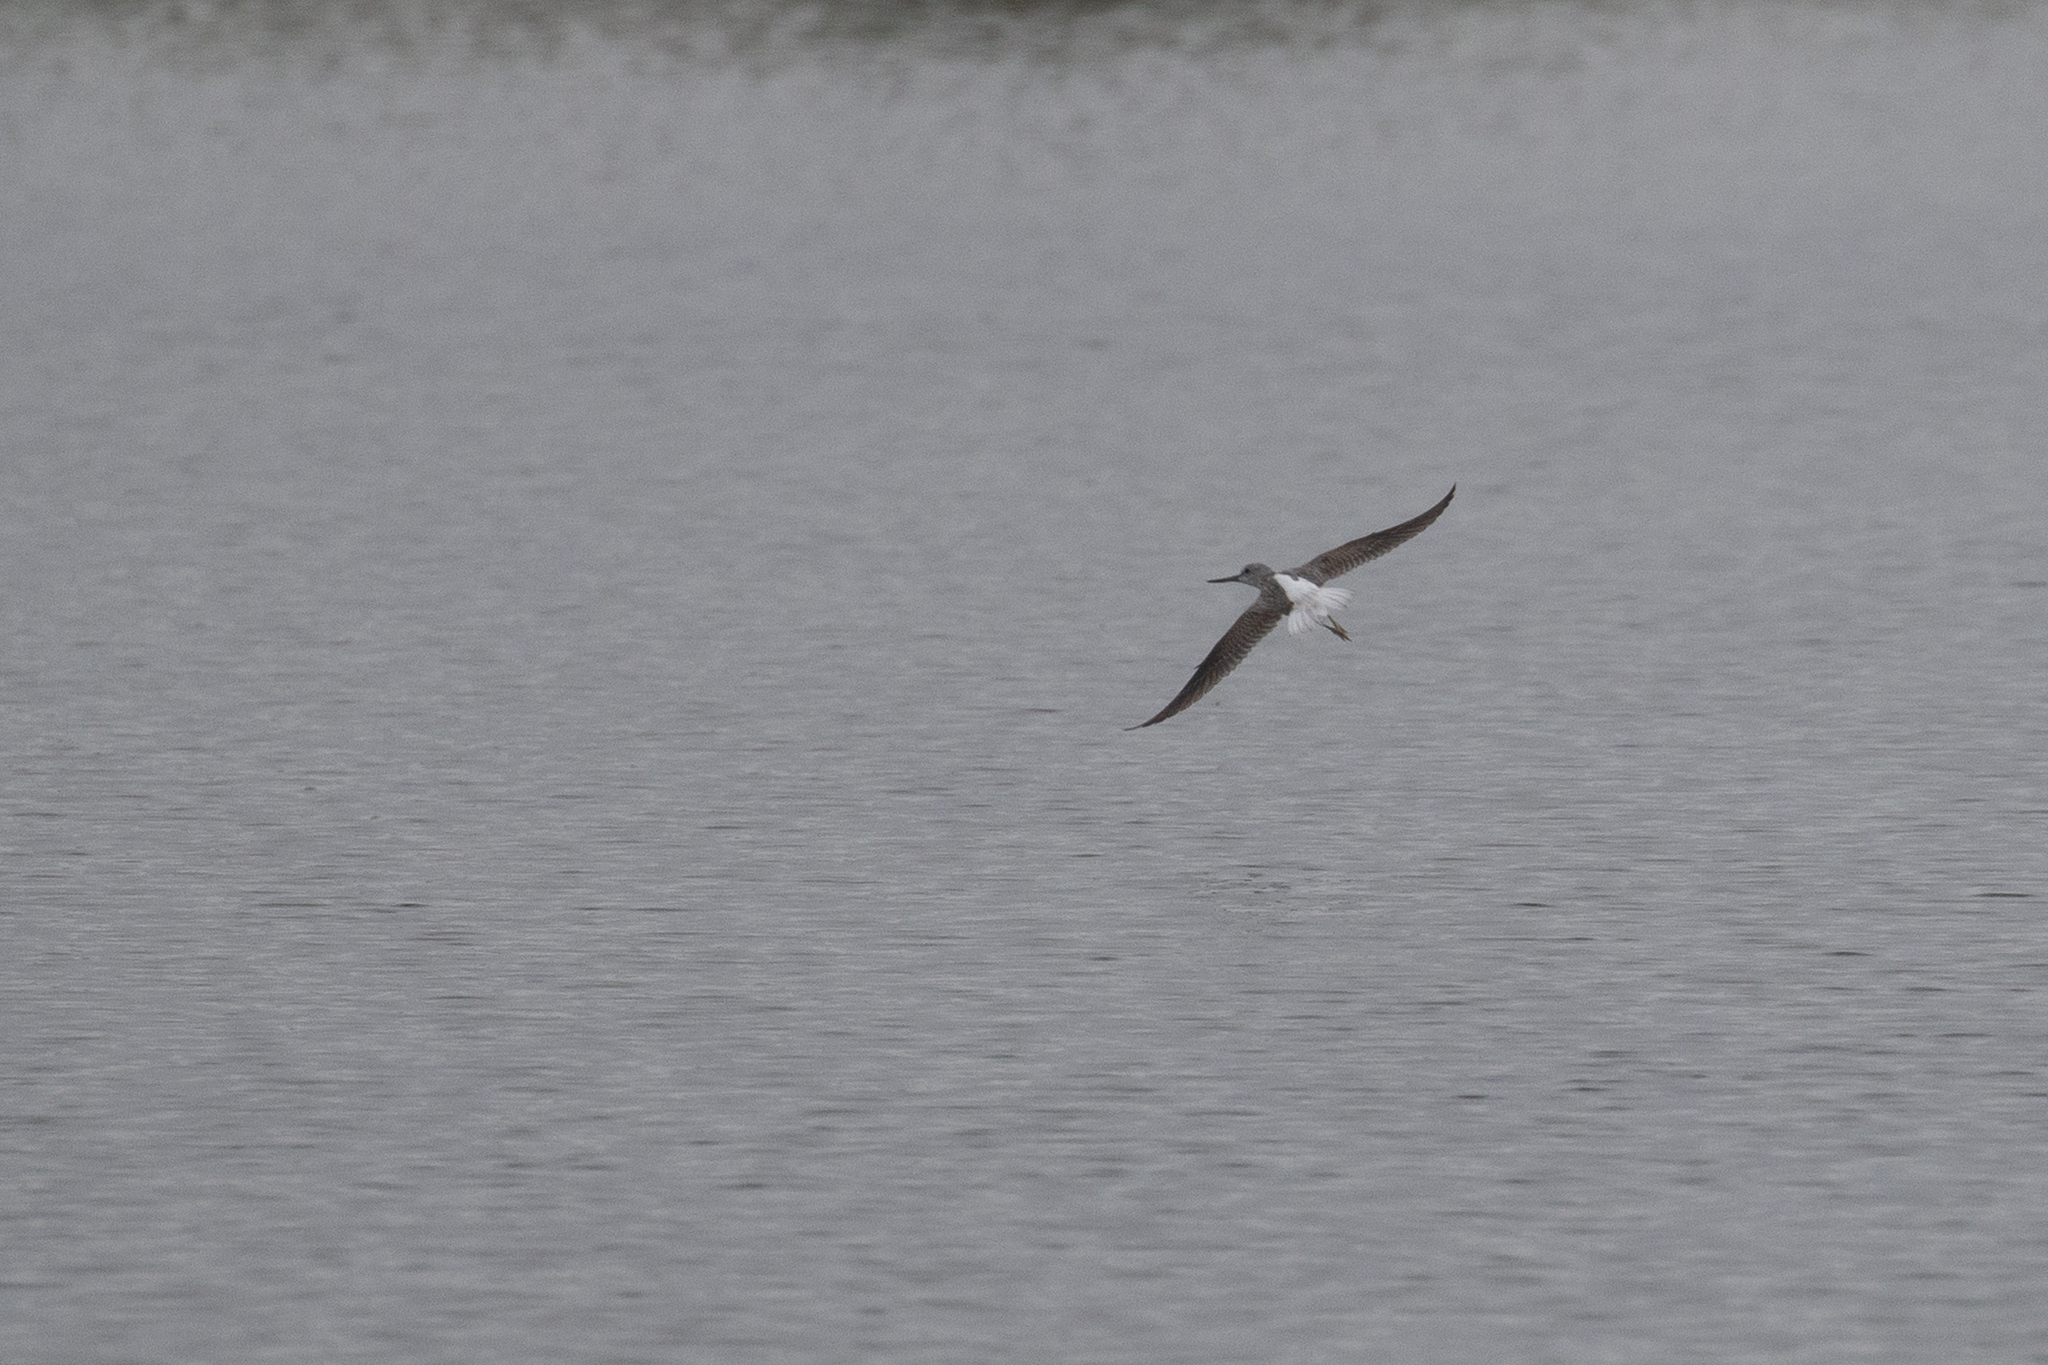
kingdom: Animalia
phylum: Chordata
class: Aves
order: Charadriiformes
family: Scolopacidae
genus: Tringa
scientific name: Tringa nebularia
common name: Common greenshank
